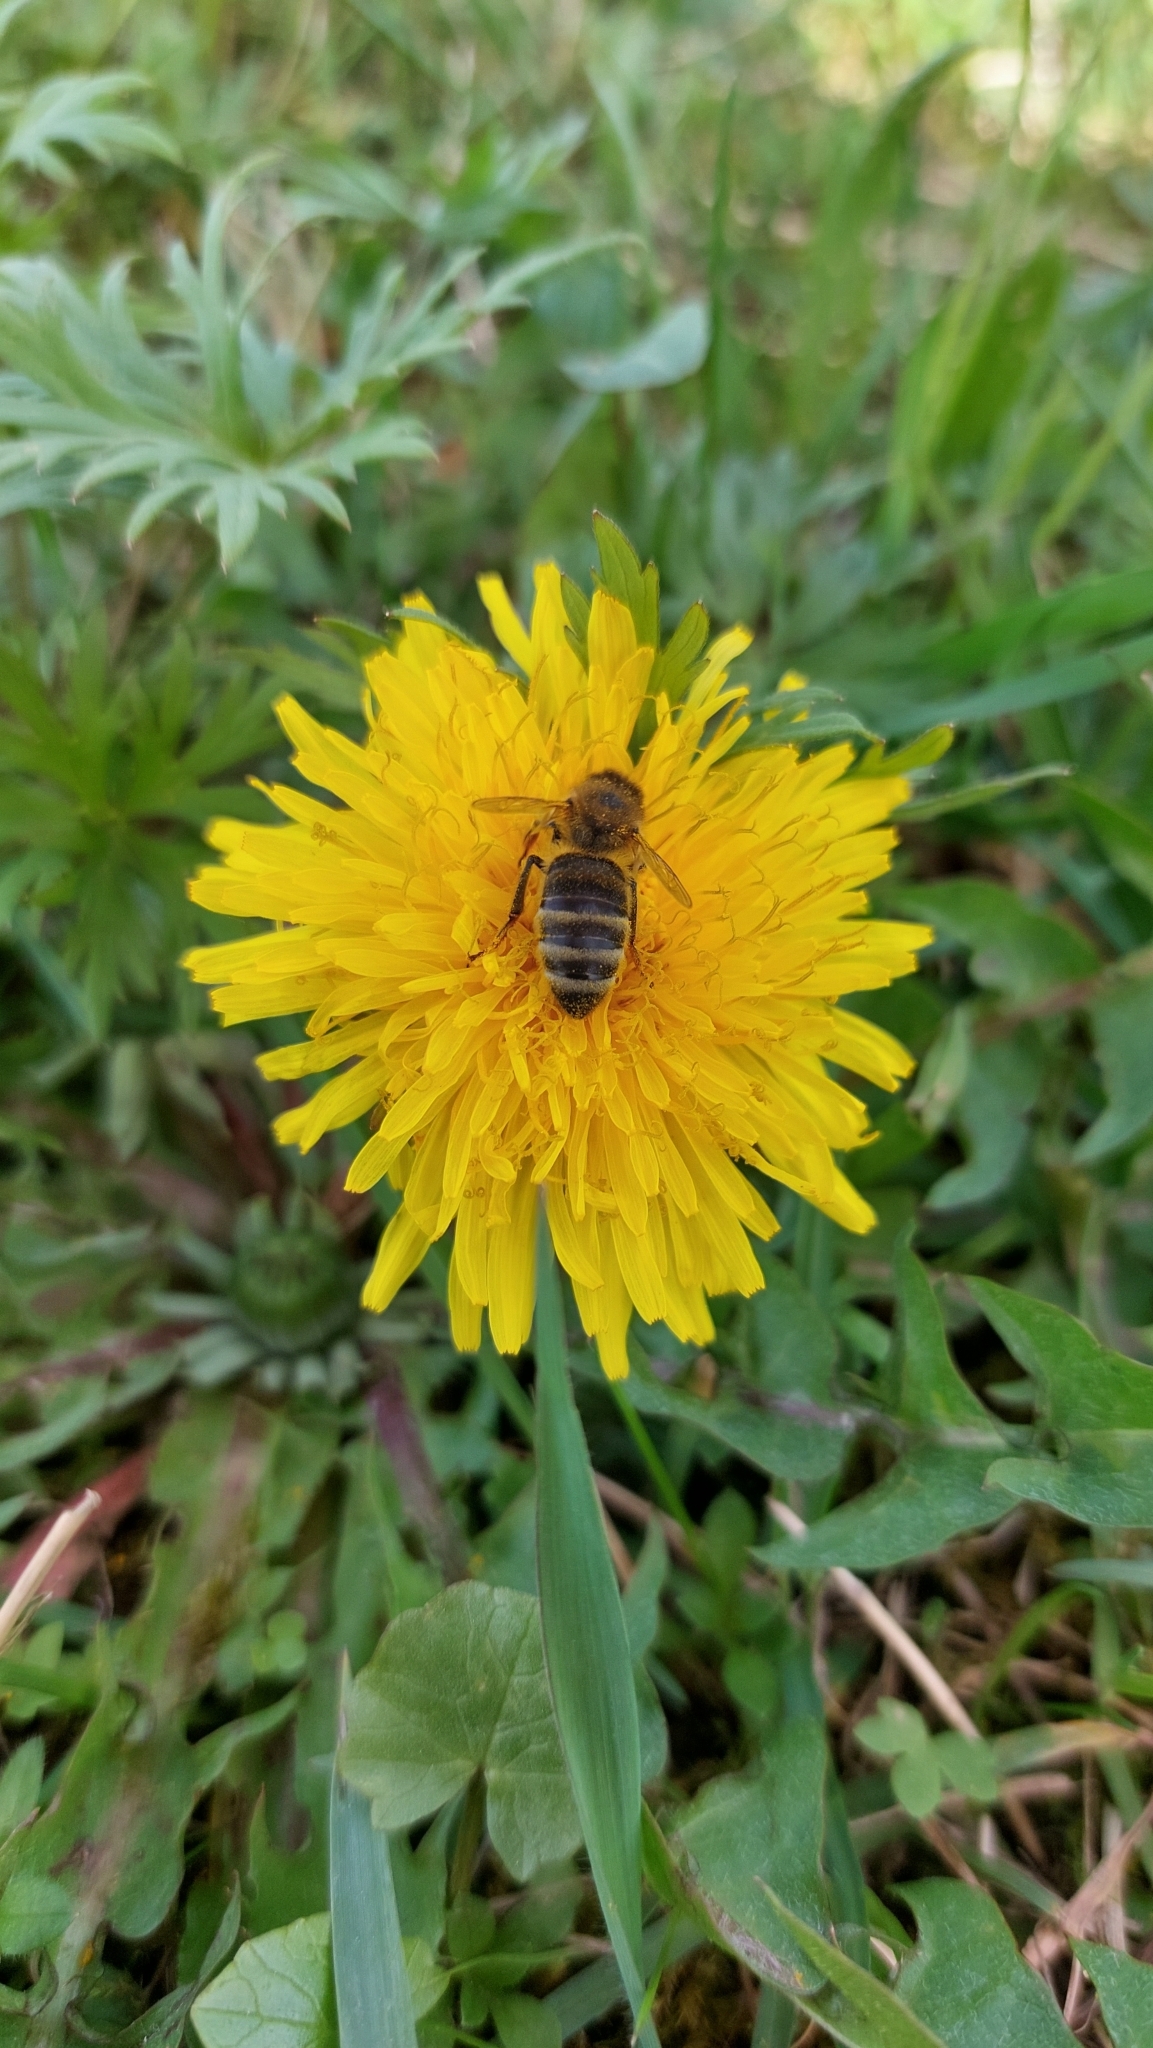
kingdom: Animalia
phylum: Arthropoda
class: Insecta
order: Hymenoptera
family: Apidae
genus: Apis
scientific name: Apis mellifera
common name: Honey bee
